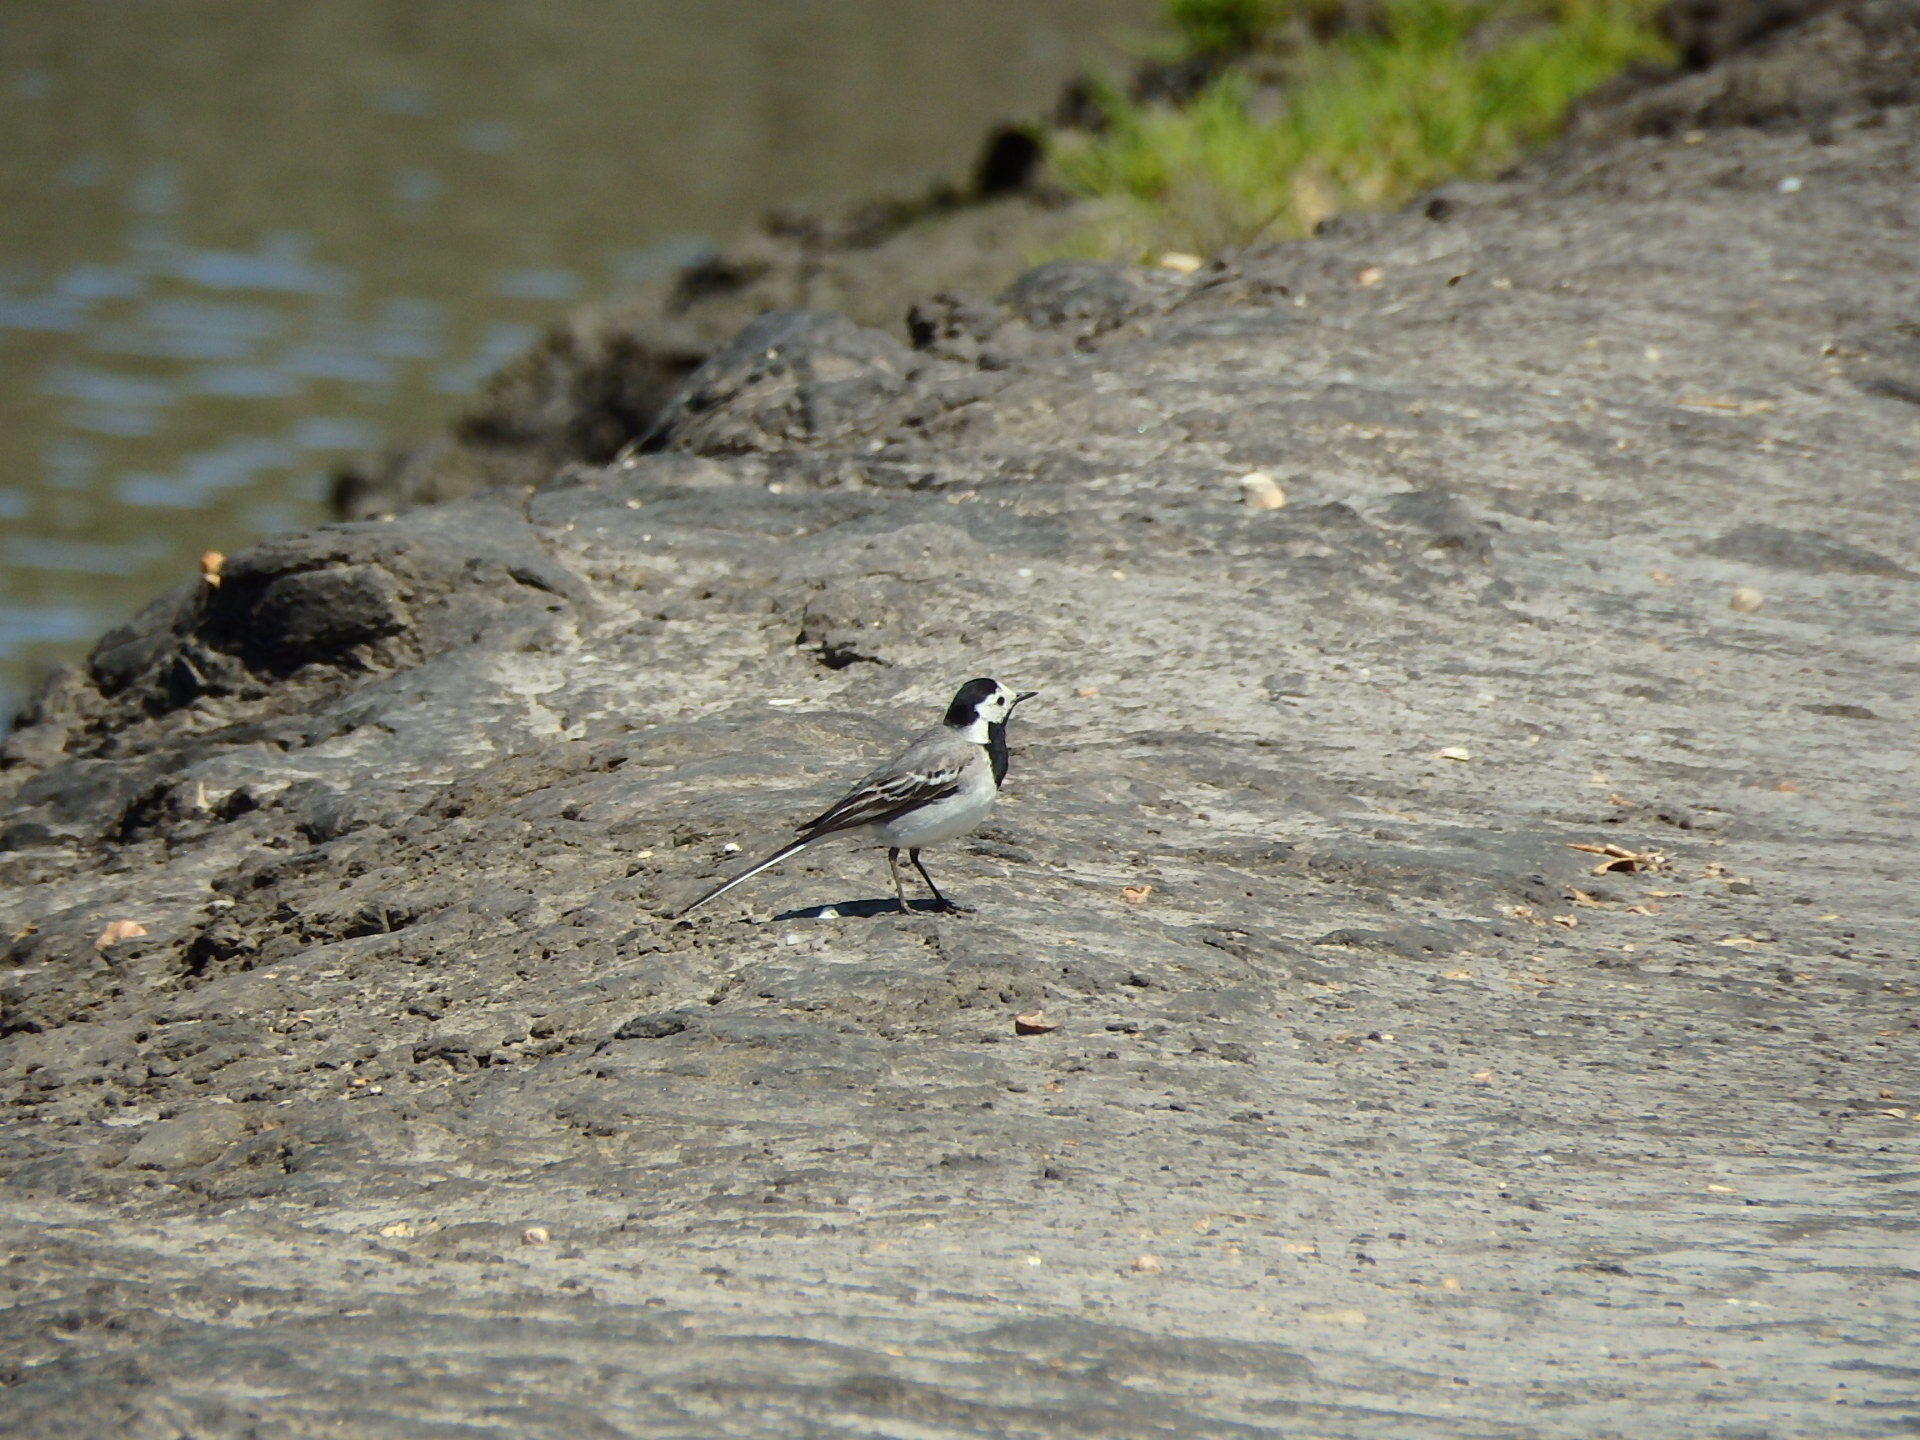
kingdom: Animalia
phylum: Chordata
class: Aves
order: Passeriformes
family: Motacillidae
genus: Motacilla
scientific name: Motacilla alba
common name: White wagtail
